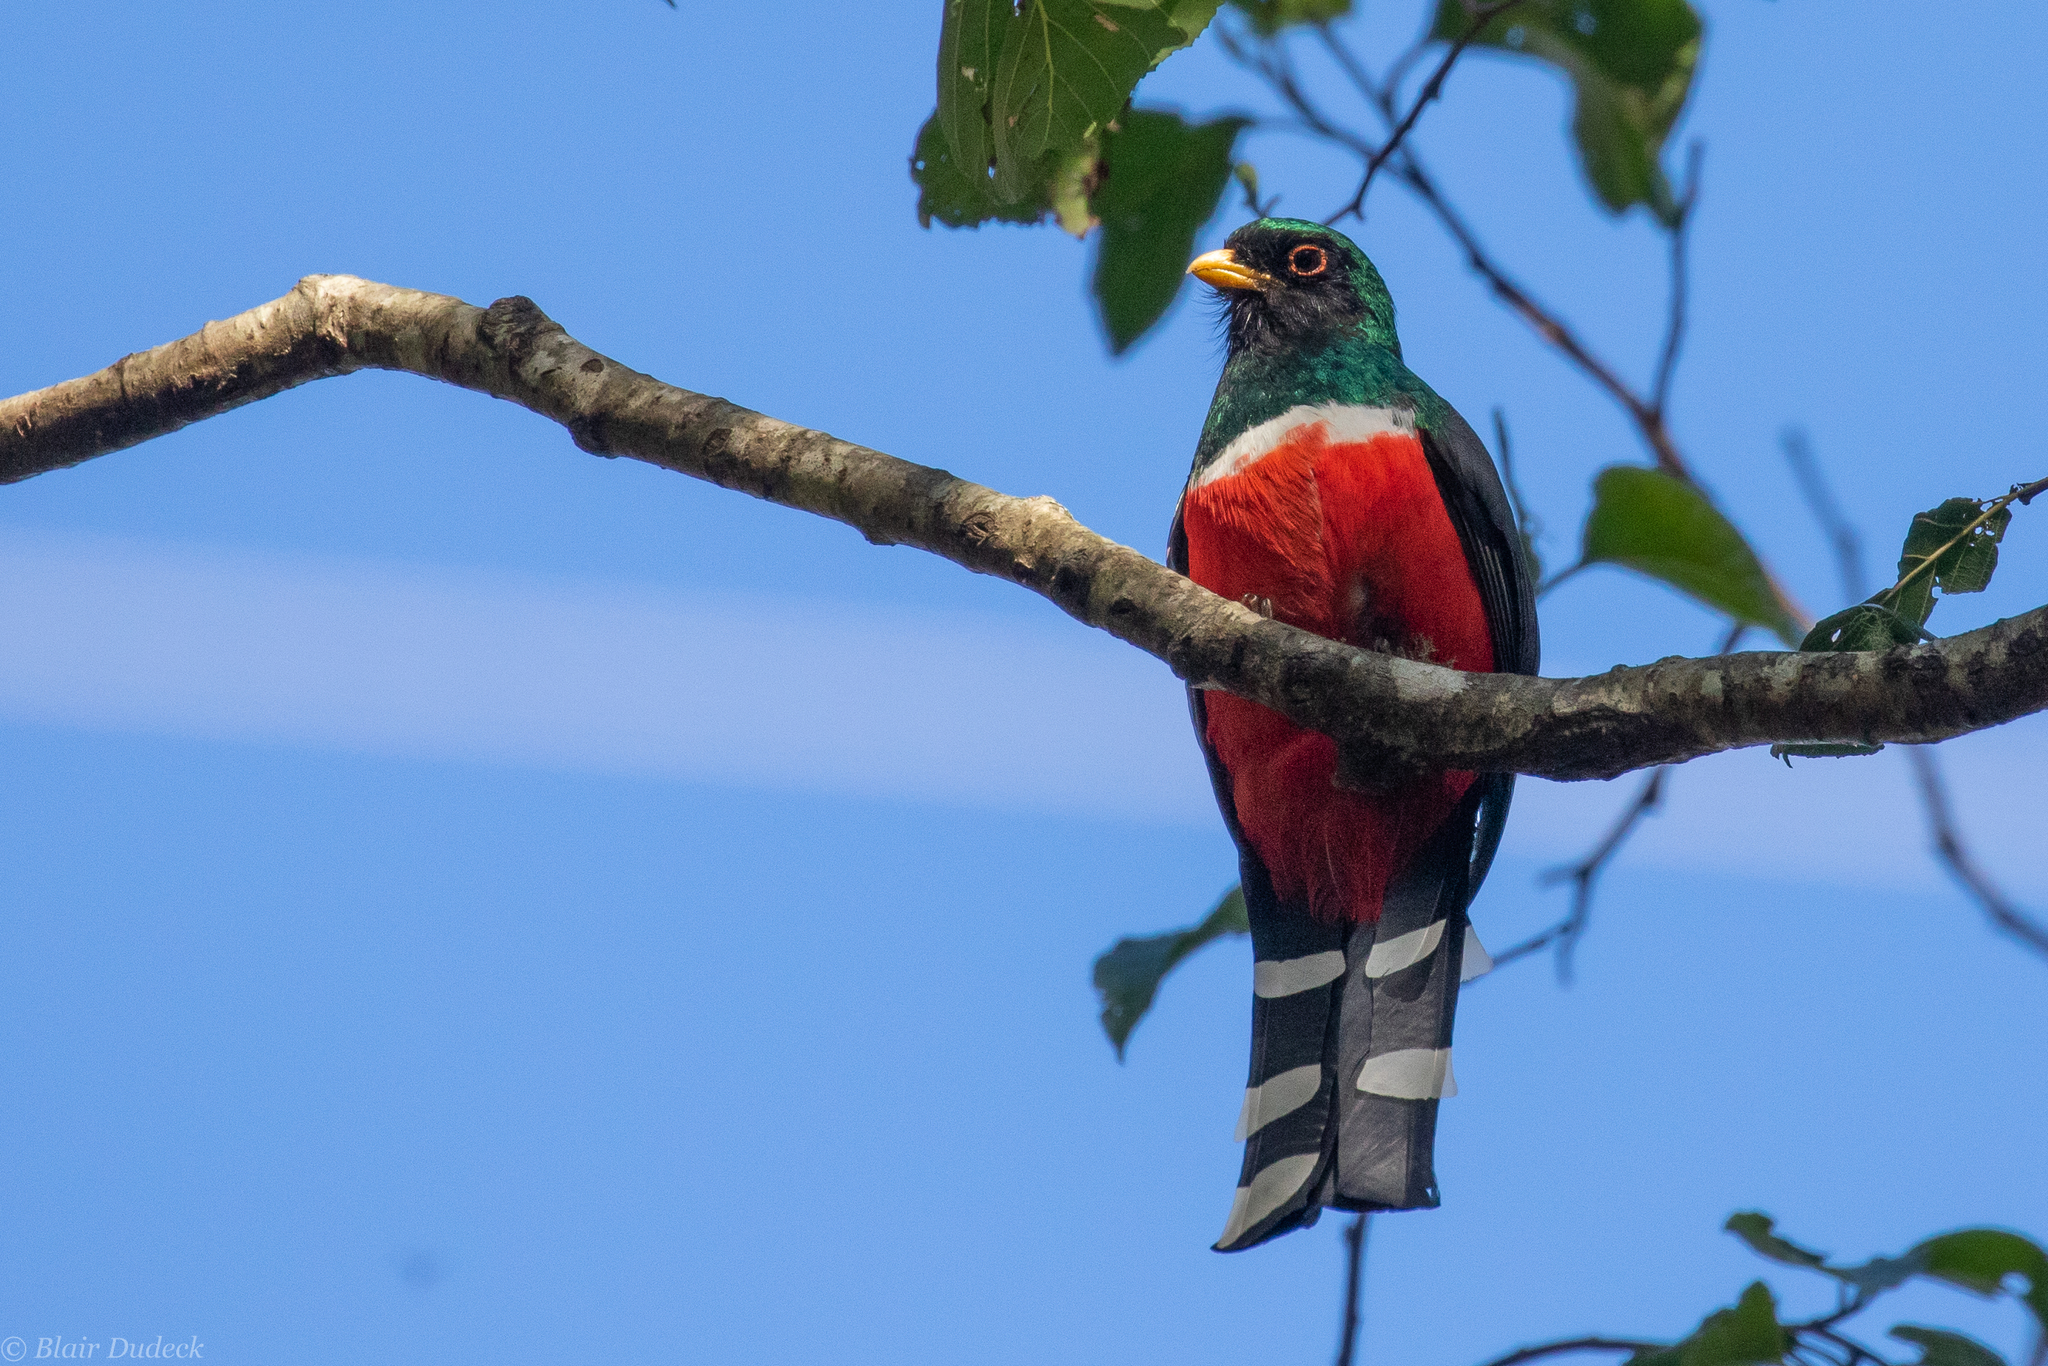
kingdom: Animalia
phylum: Chordata
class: Aves
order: Trogoniformes
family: Trogonidae
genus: Trogon
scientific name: Trogon mexicanus
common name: Mountain trogon
